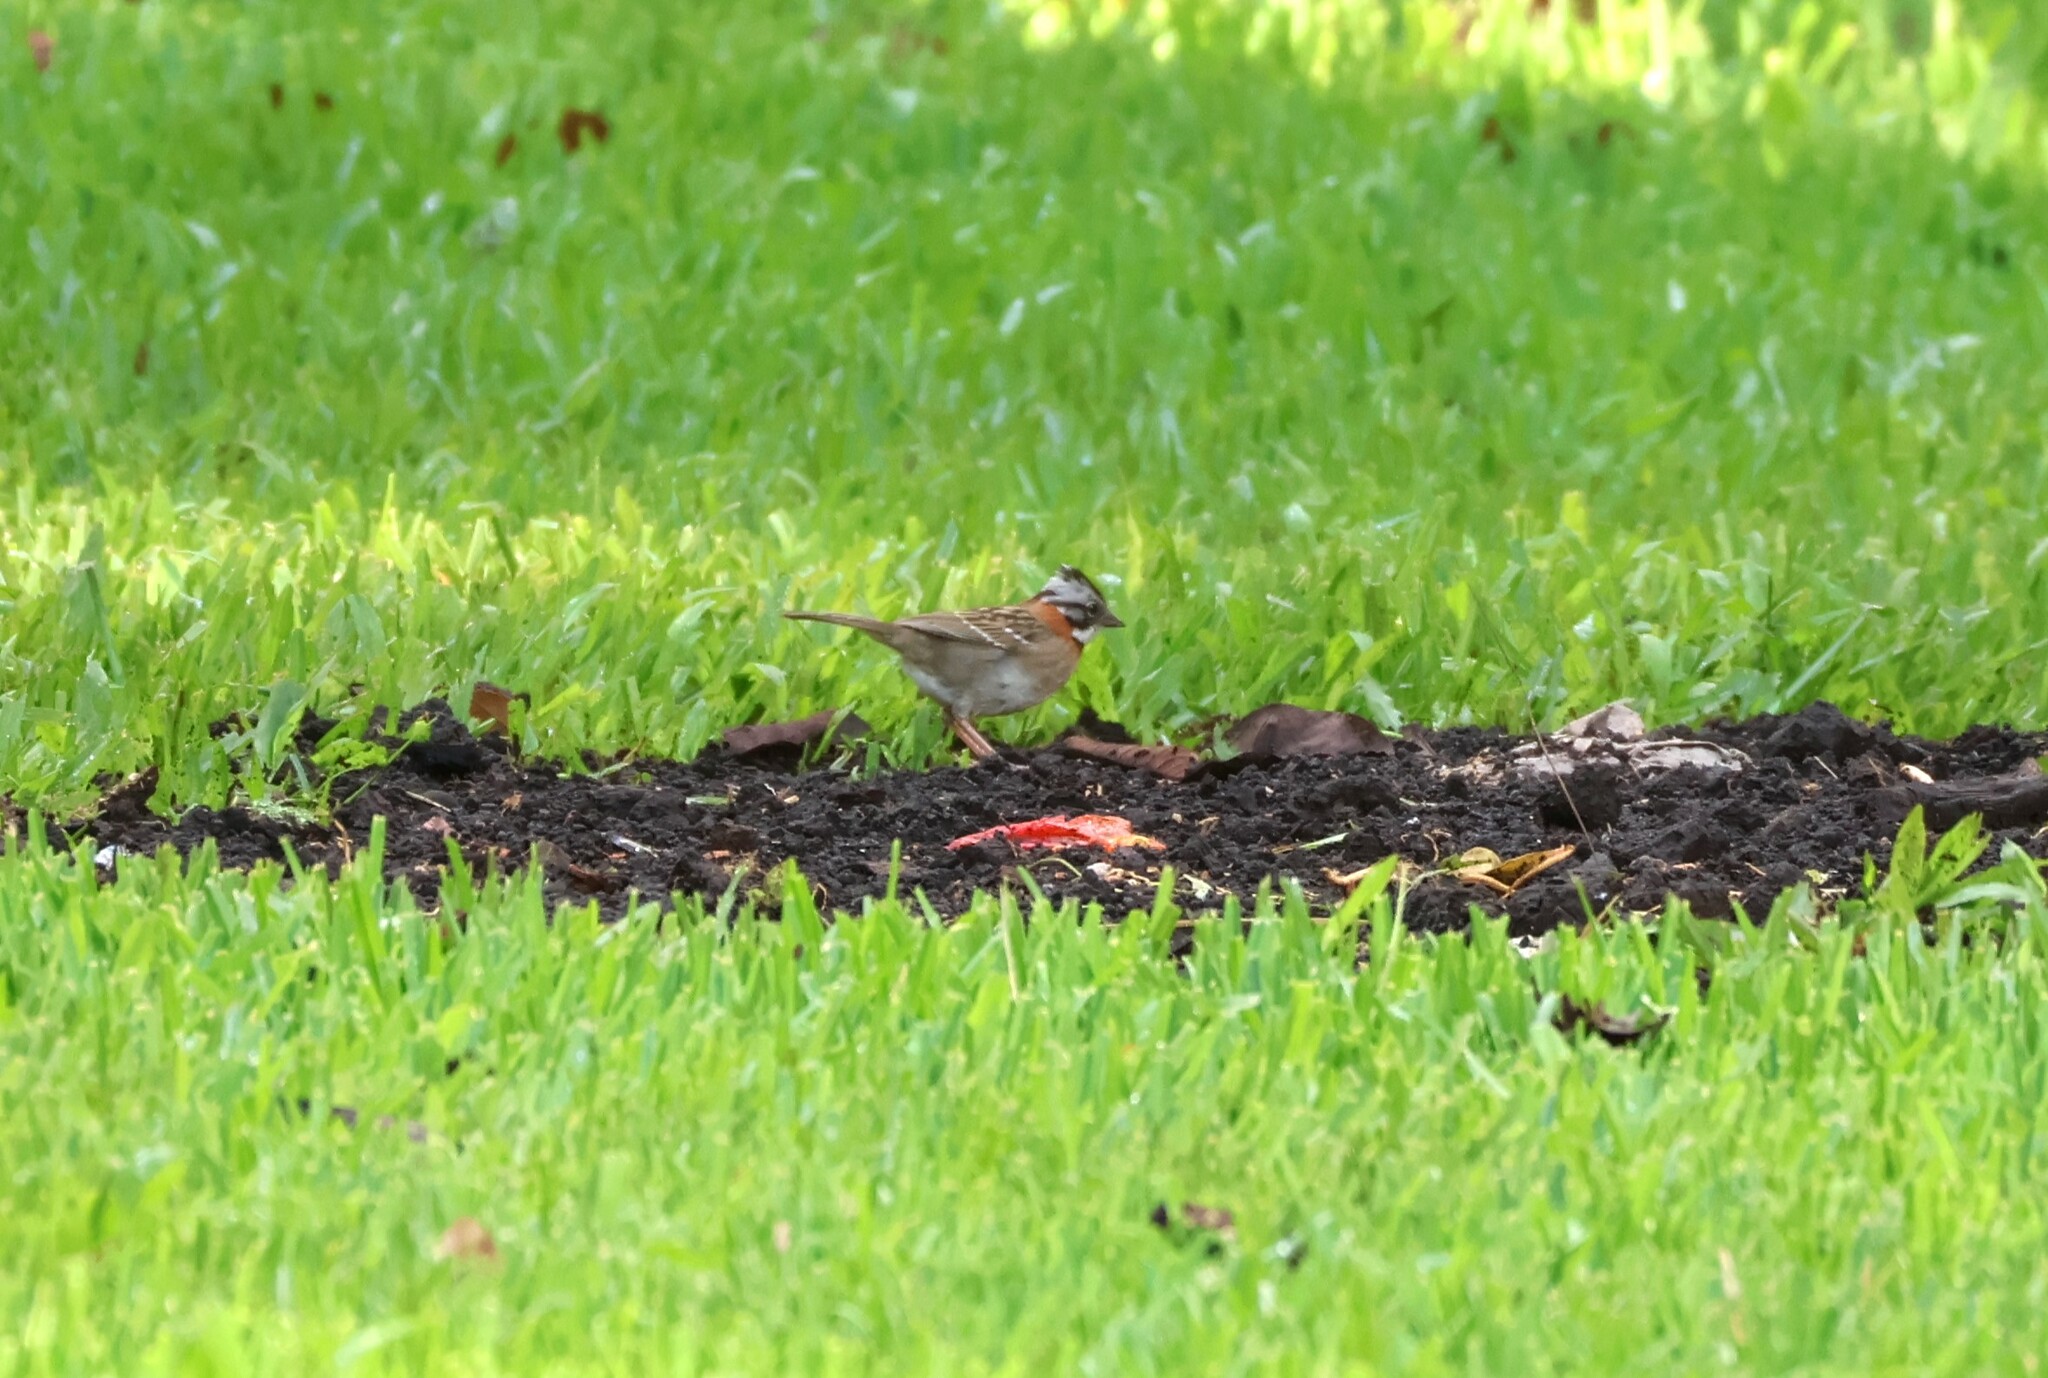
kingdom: Animalia
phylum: Chordata
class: Aves
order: Passeriformes
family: Passerellidae
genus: Zonotrichia
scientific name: Zonotrichia capensis
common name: Rufous-collared sparrow
